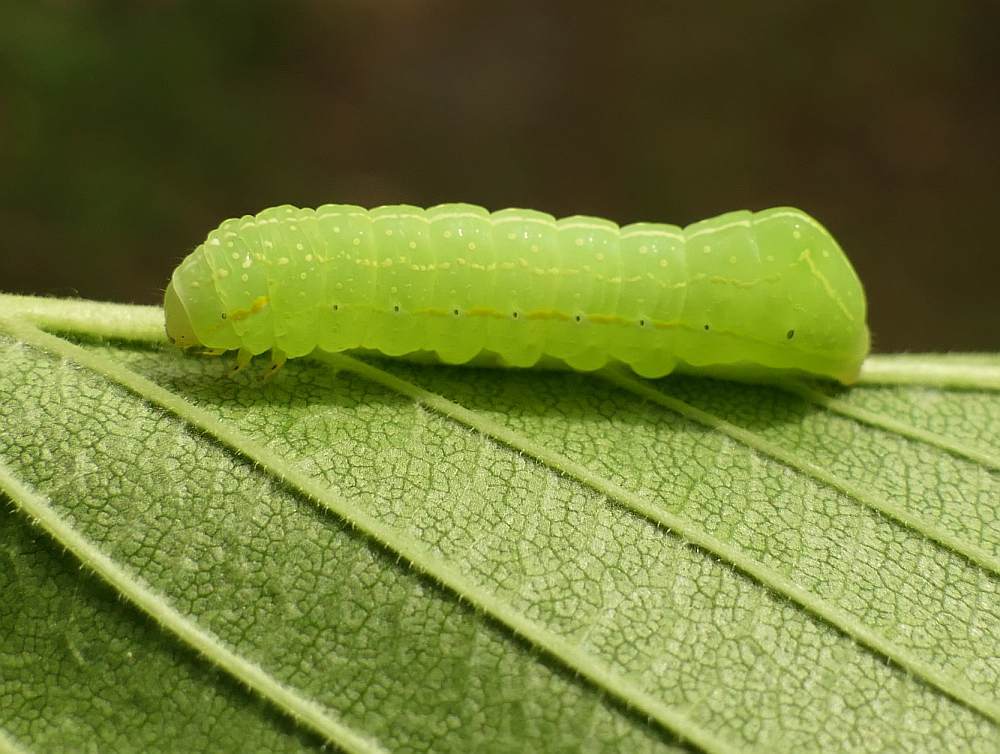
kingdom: Animalia
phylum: Arthropoda
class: Insecta
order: Lepidoptera
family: Noctuidae
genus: Amphipyra
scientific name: Amphipyra pyramidoides
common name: American copper underwing
